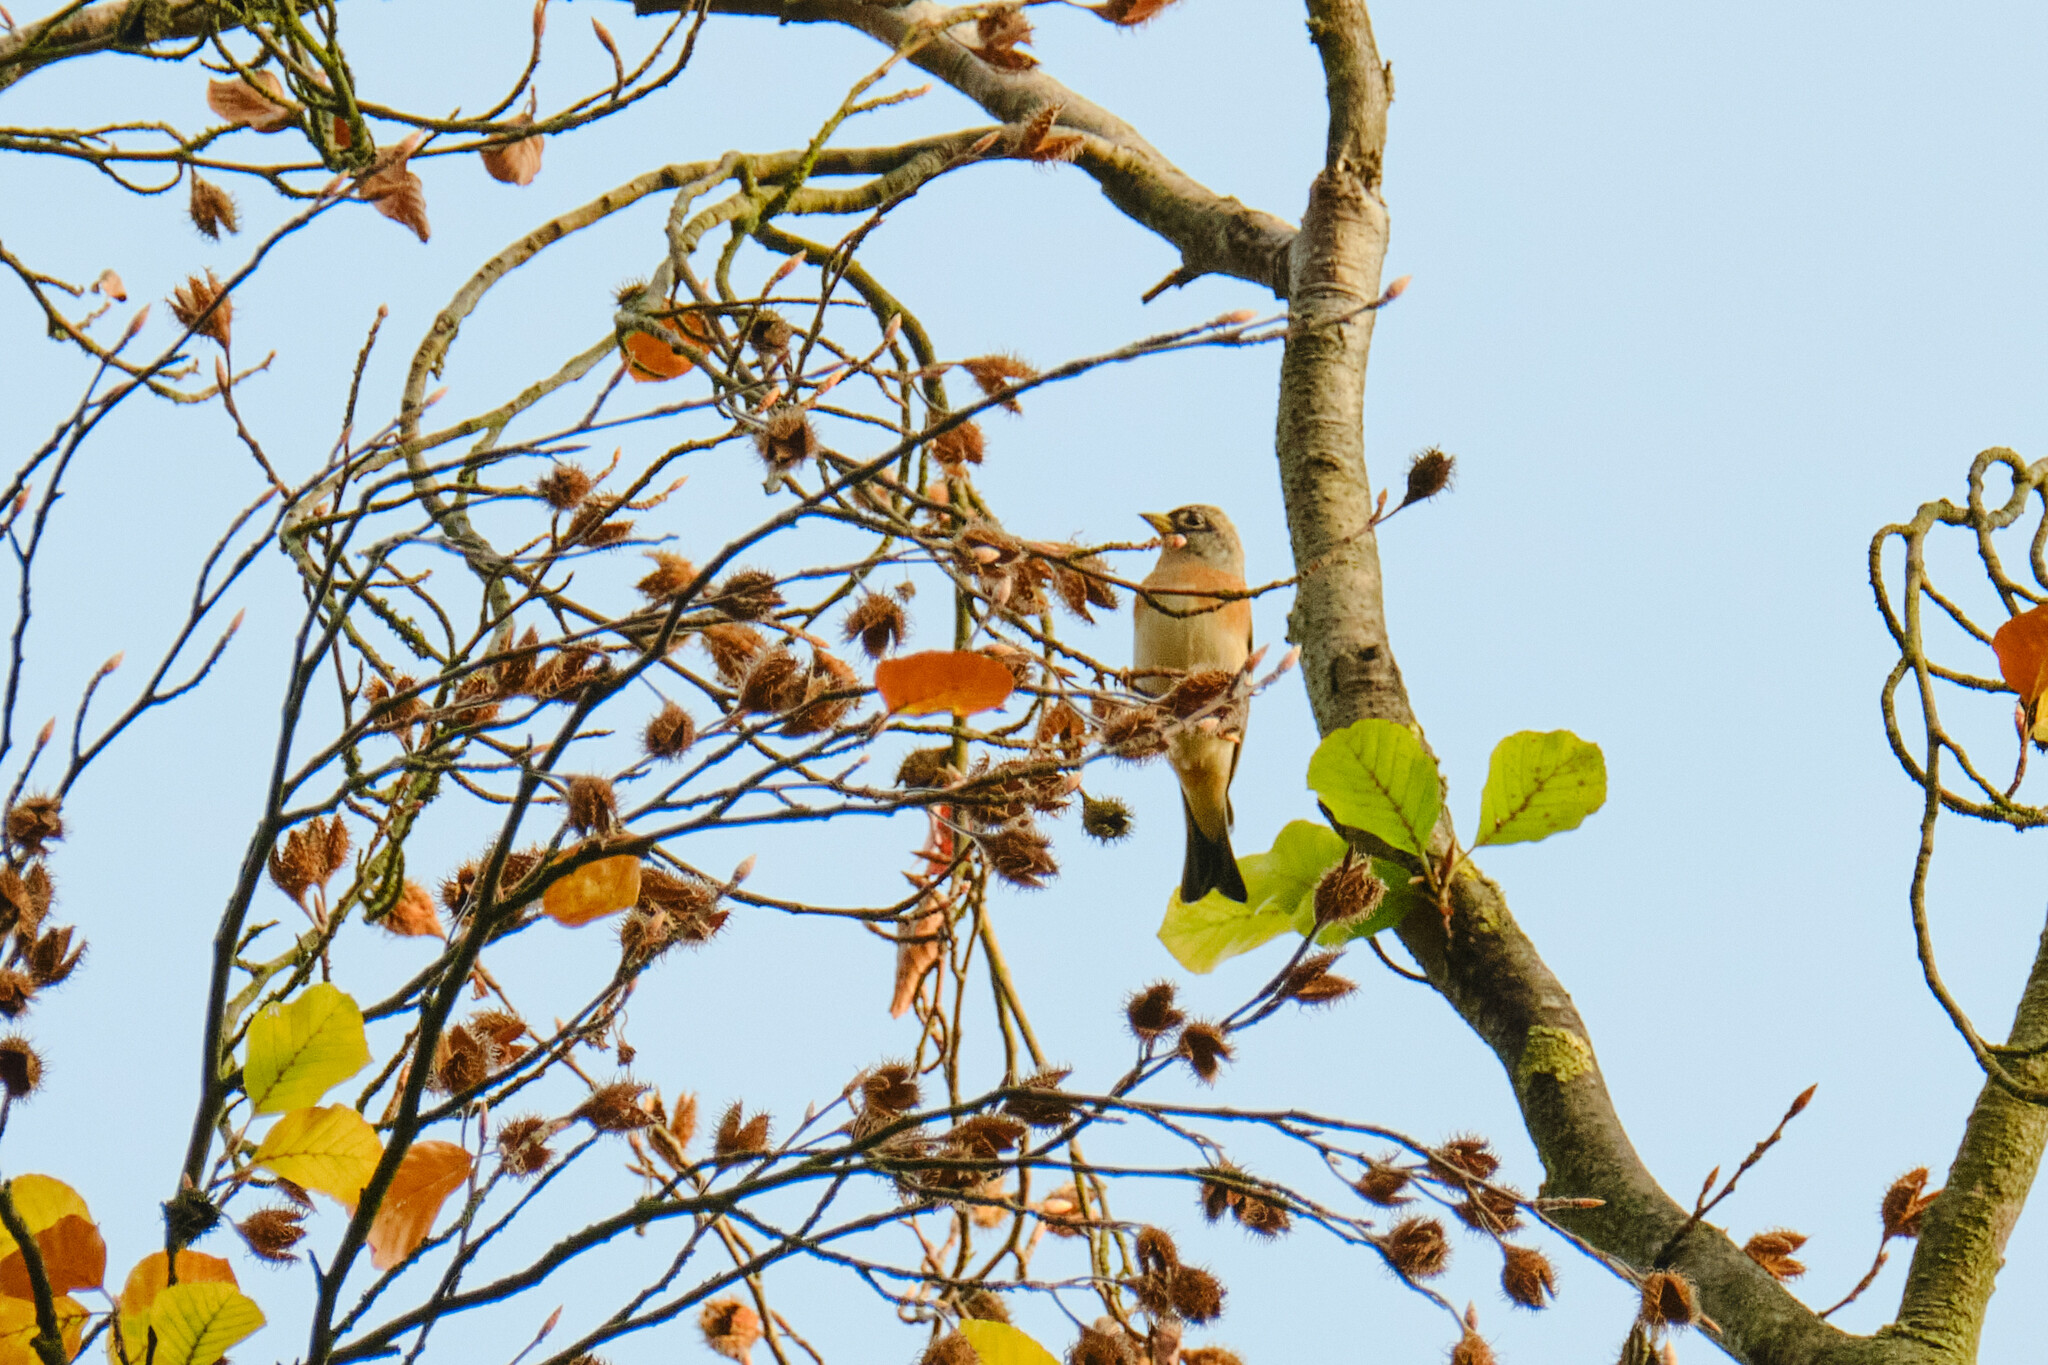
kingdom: Animalia
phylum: Chordata
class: Aves
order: Passeriformes
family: Fringillidae
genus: Fringilla
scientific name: Fringilla montifringilla
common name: Brambling
